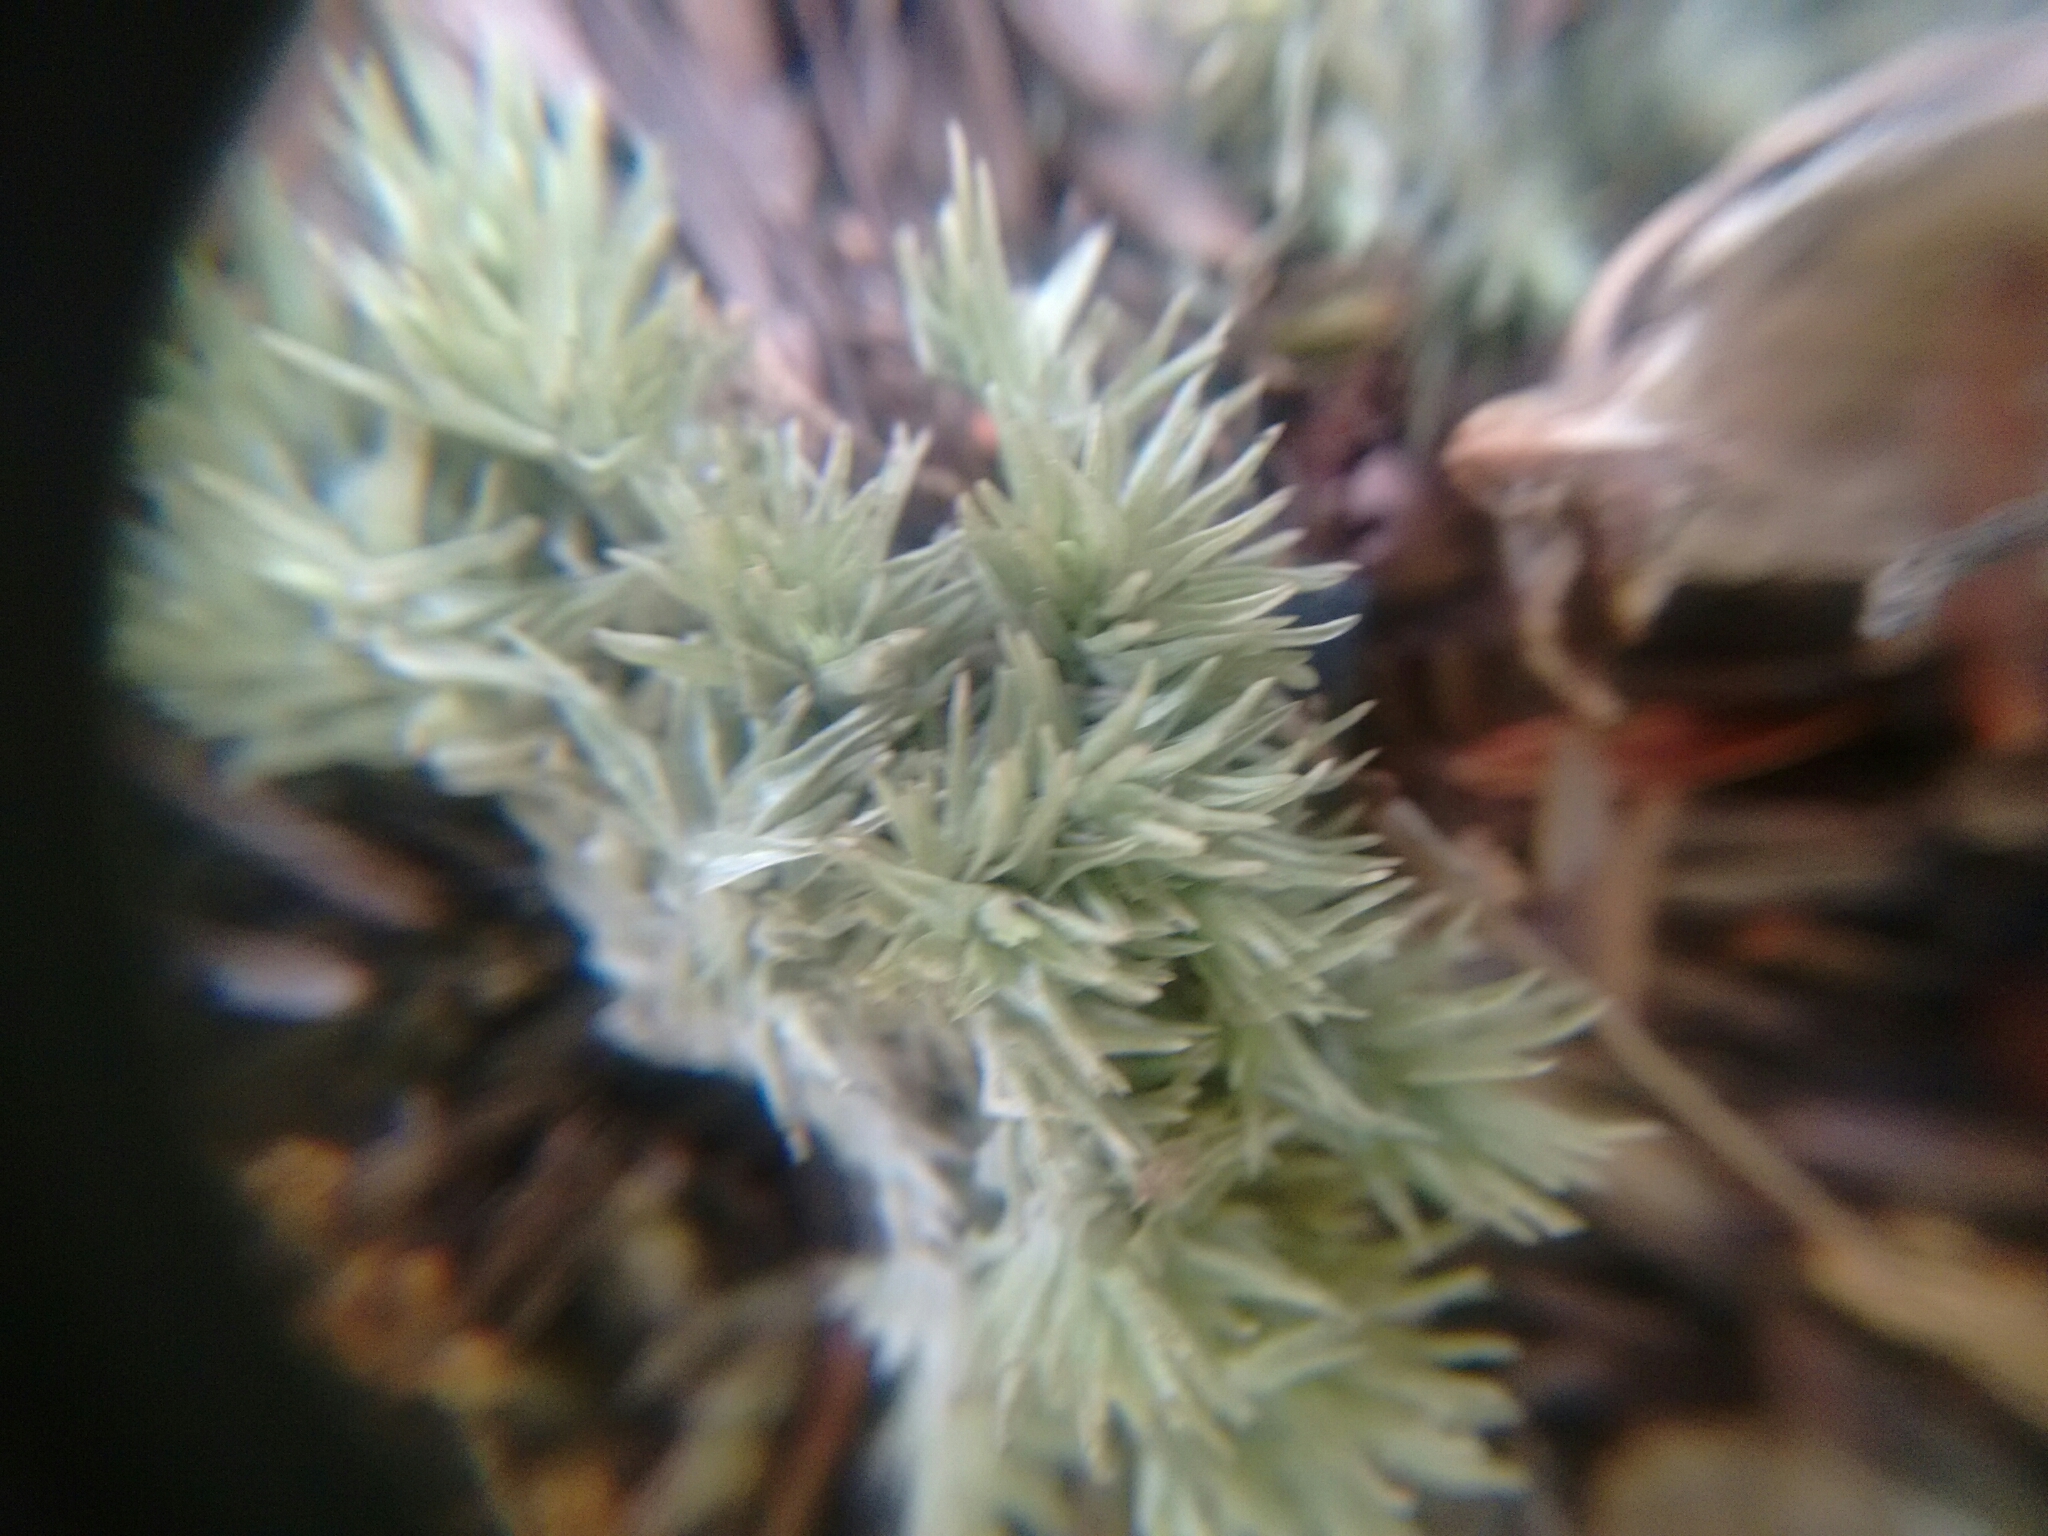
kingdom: Plantae
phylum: Bryophyta
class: Bryopsida
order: Dicranales
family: Leucobryaceae
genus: Leucobryum
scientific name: Leucobryum albidum
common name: White moss
